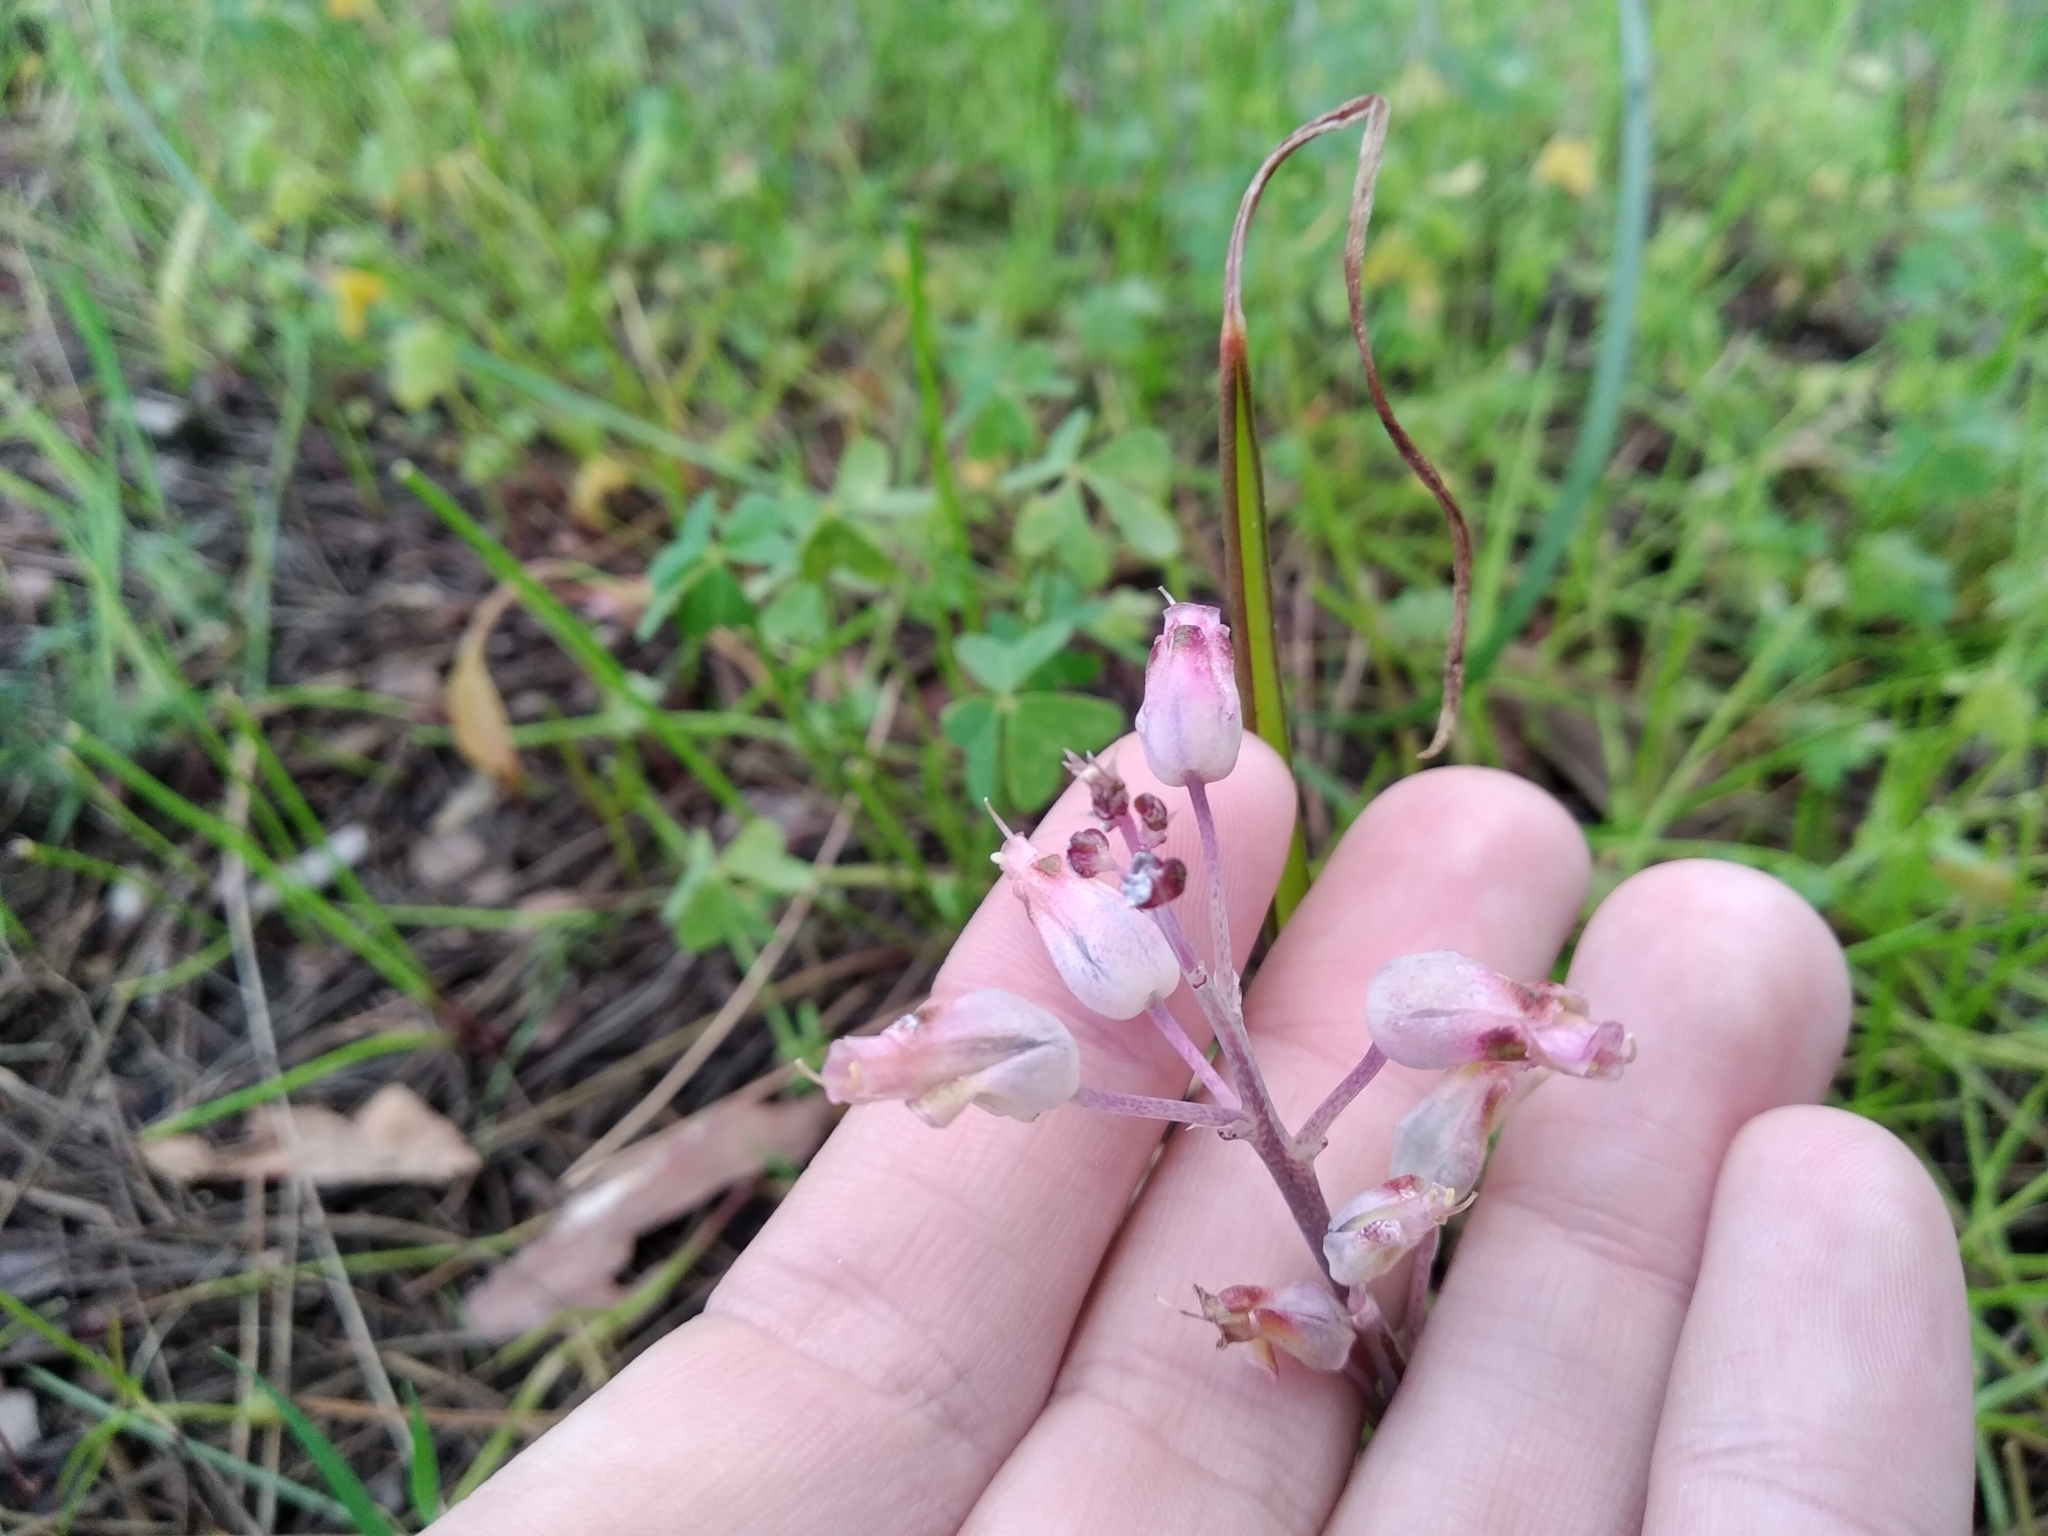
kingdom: Plantae
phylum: Tracheophyta
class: Liliopsida
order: Asparagales
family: Asparagaceae
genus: Lachenalia
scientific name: Lachenalia unifolia
